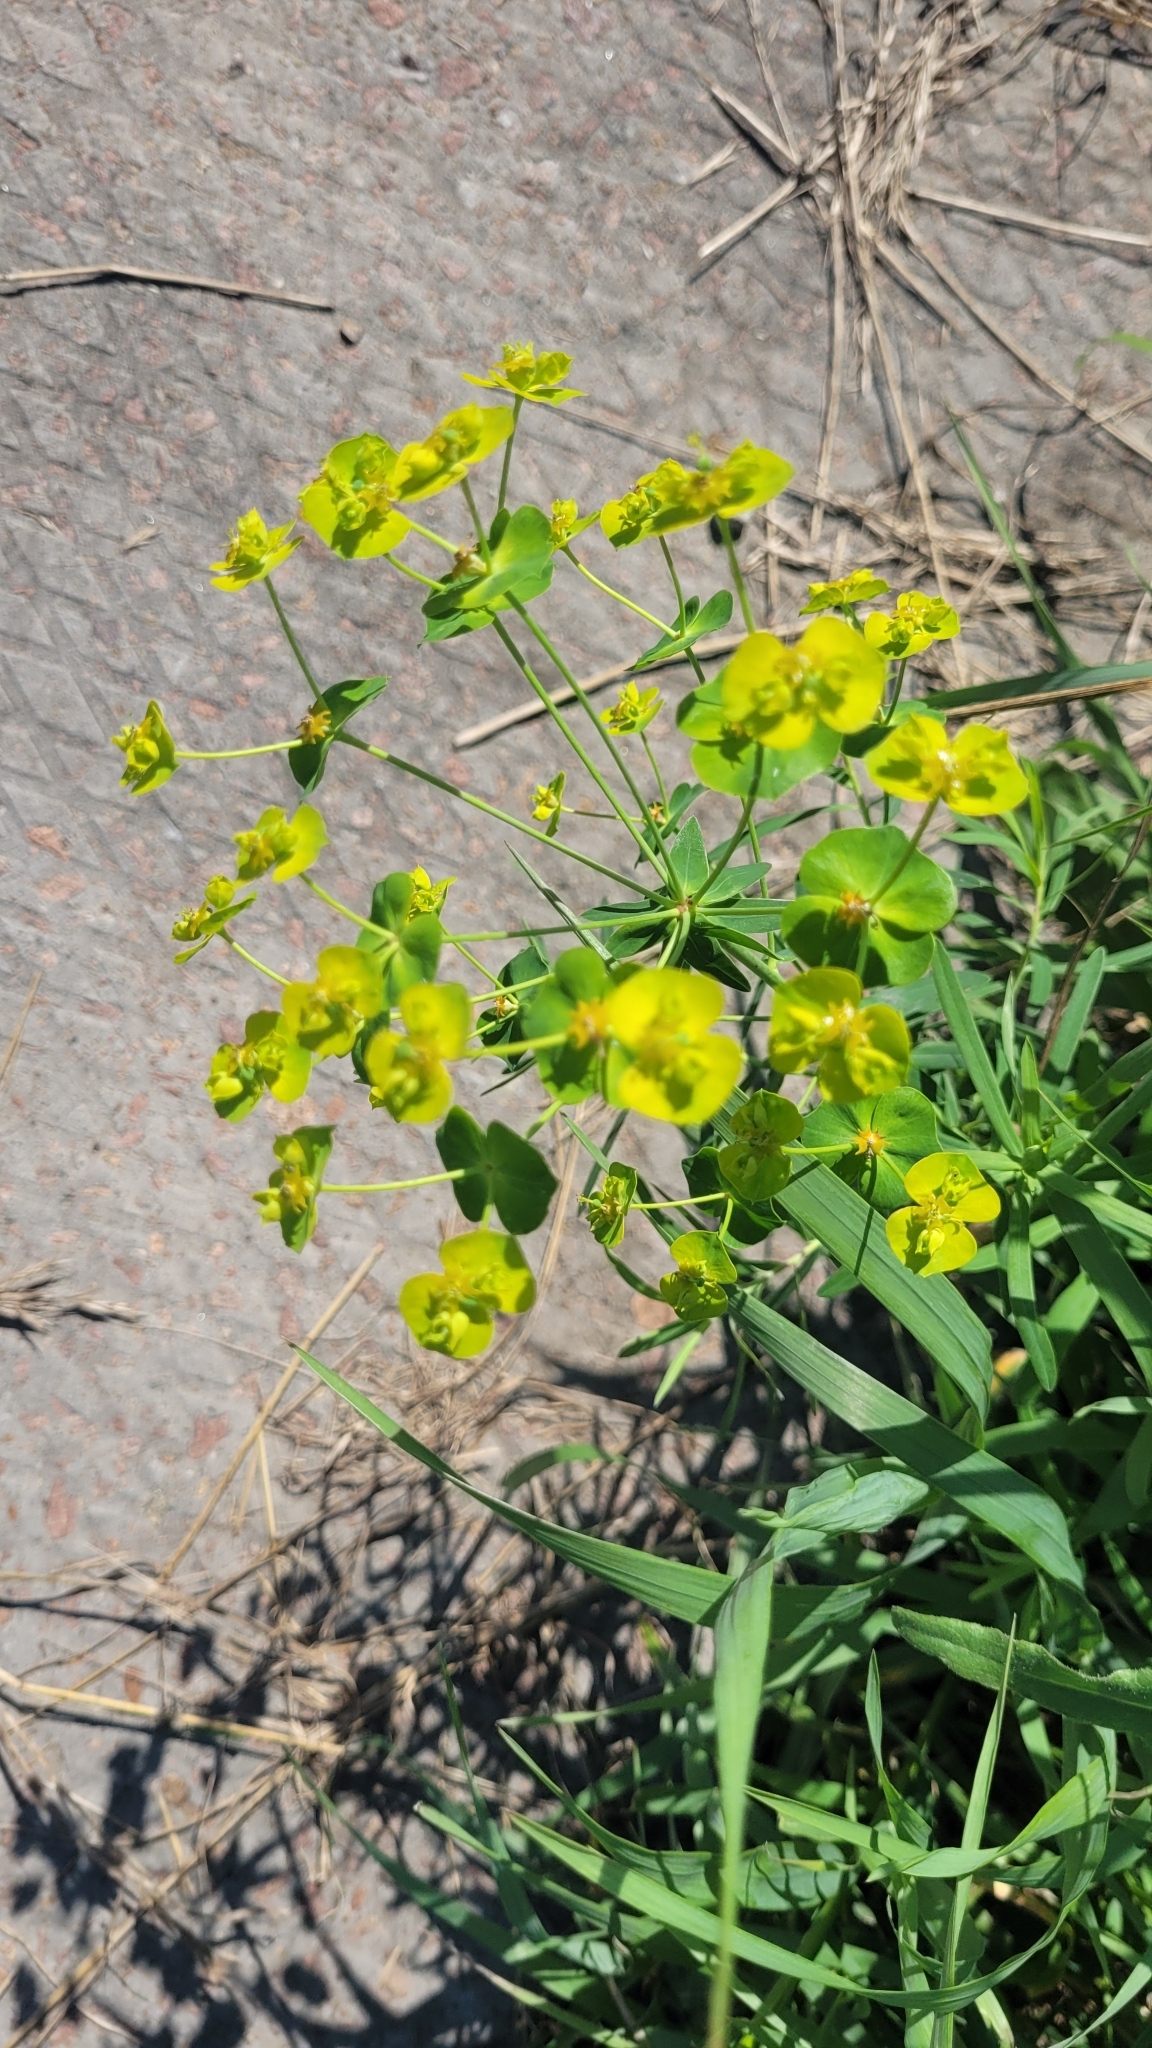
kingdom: Plantae
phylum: Tracheophyta
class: Magnoliopsida
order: Malpighiales
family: Euphorbiaceae
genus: Euphorbia
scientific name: Euphorbia virgata
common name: Leafy spurge
